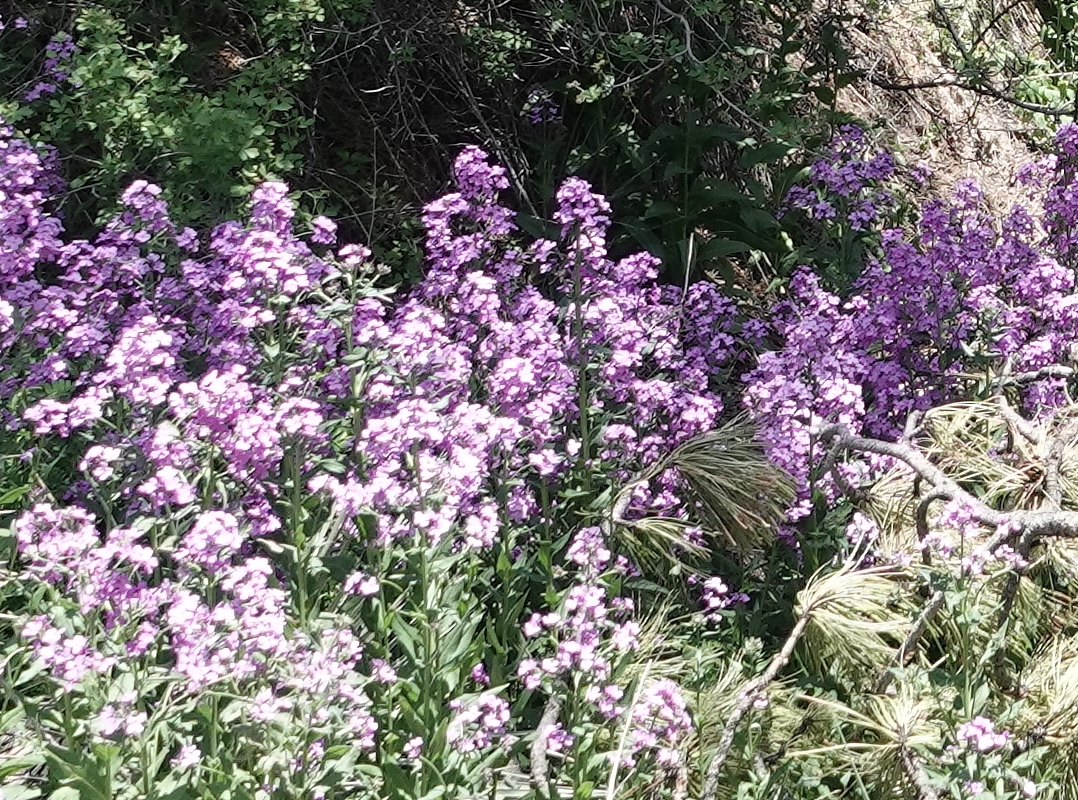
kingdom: Plantae
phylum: Tracheophyta
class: Magnoliopsida
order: Brassicales
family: Brassicaceae
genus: Hesperis
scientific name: Hesperis matronalis
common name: Dame's-violet
